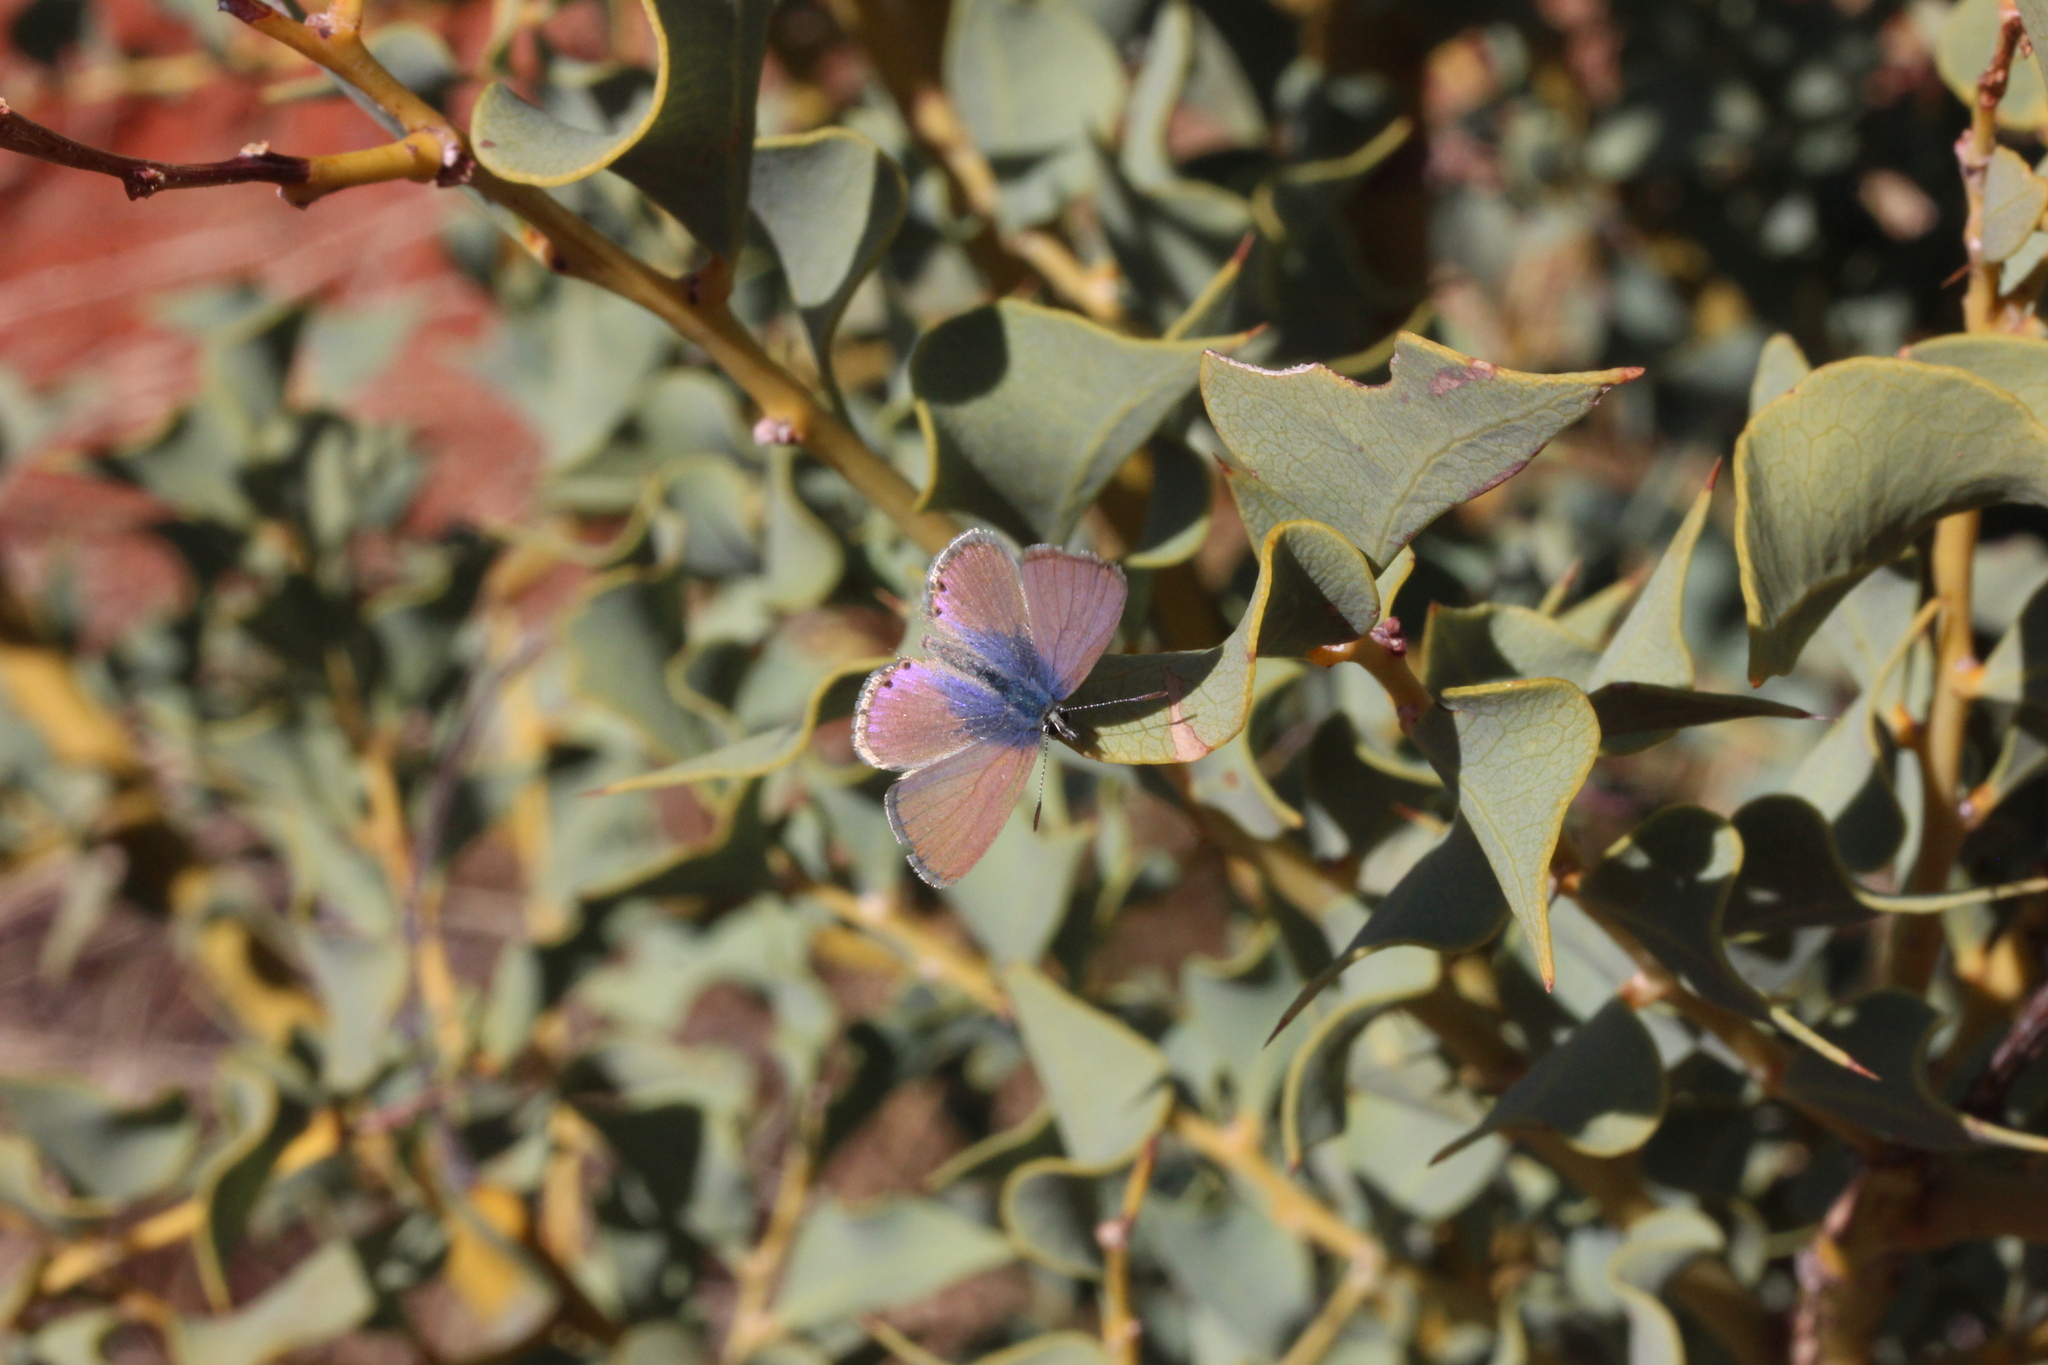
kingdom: Animalia
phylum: Arthropoda
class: Insecta
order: Lepidoptera
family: Lycaenidae
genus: Nacaduba
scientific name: Nacaduba biocellata
